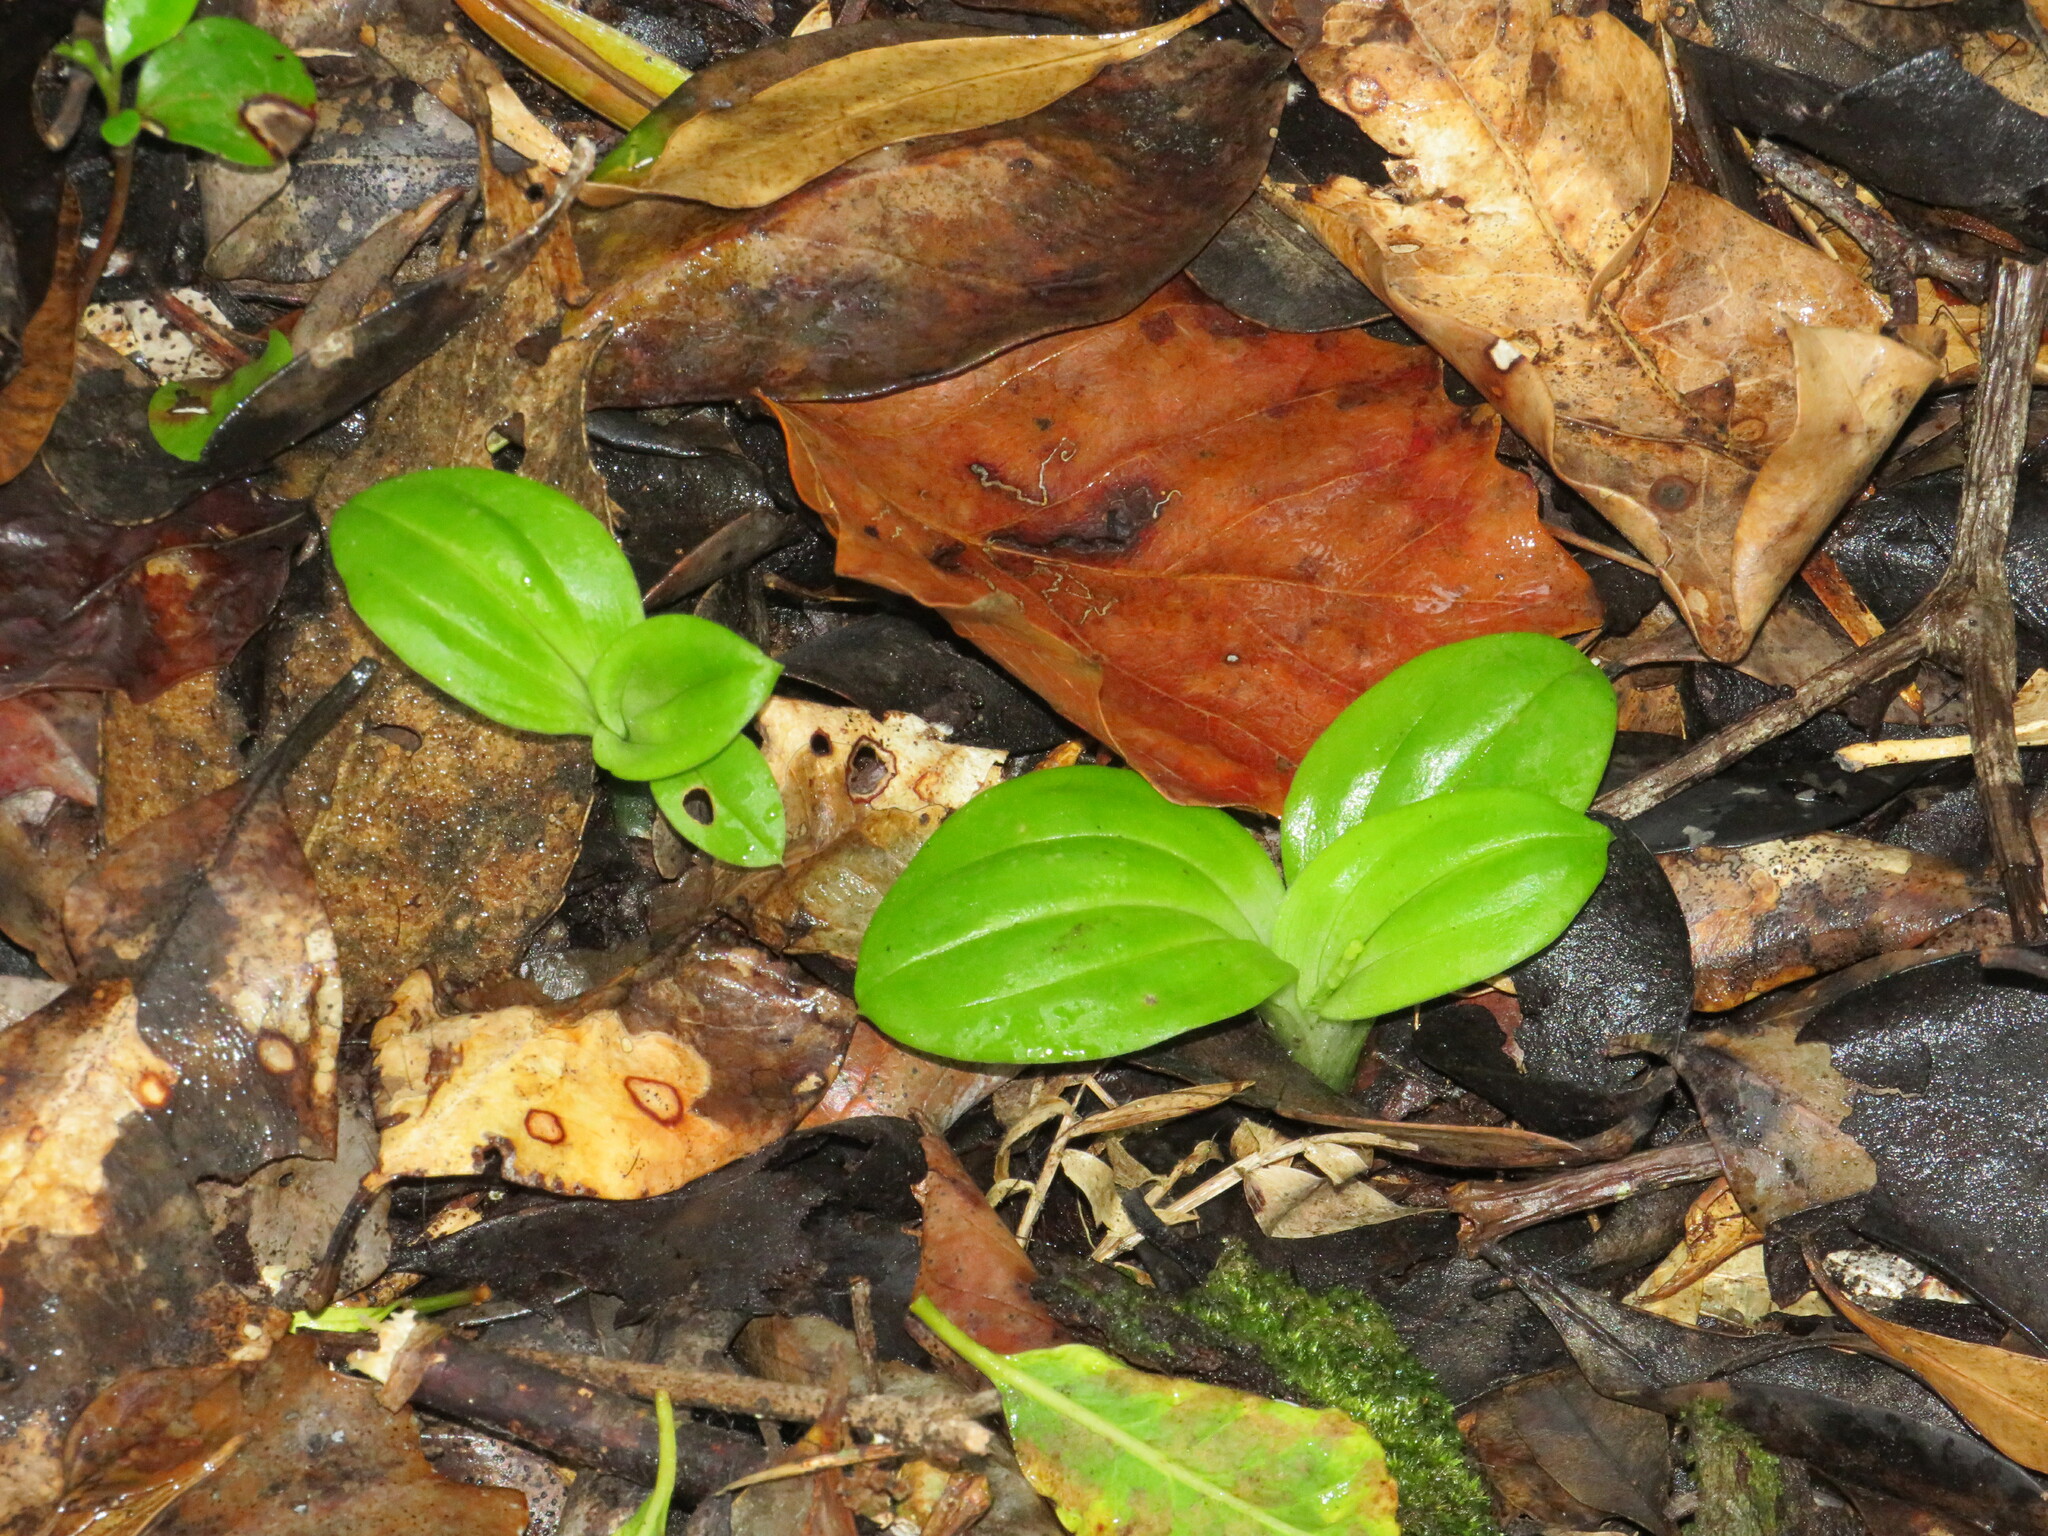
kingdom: Plantae
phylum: Tracheophyta
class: Liliopsida
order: Asparagales
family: Orchidaceae
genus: Liparis
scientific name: Liparis remota
